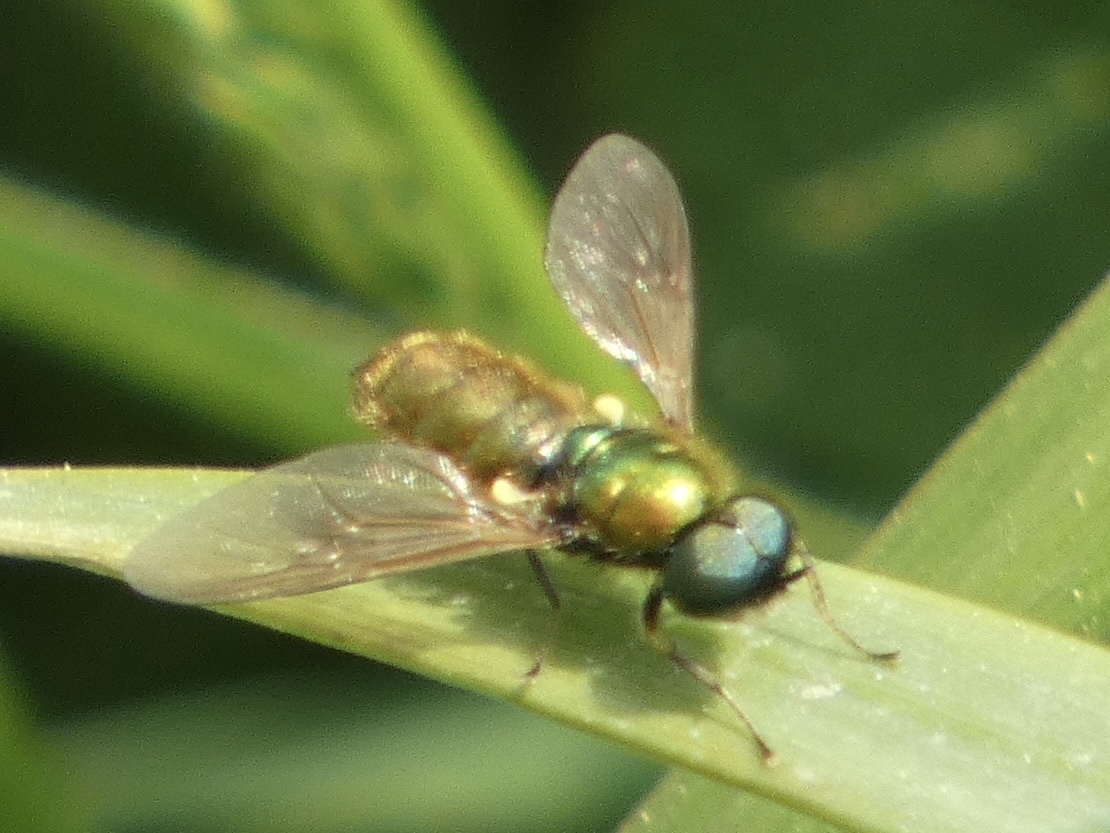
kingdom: Animalia
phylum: Arthropoda
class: Insecta
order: Diptera
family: Stratiomyidae
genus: Chloromyia
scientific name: Chloromyia formosa
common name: Soldier fly
